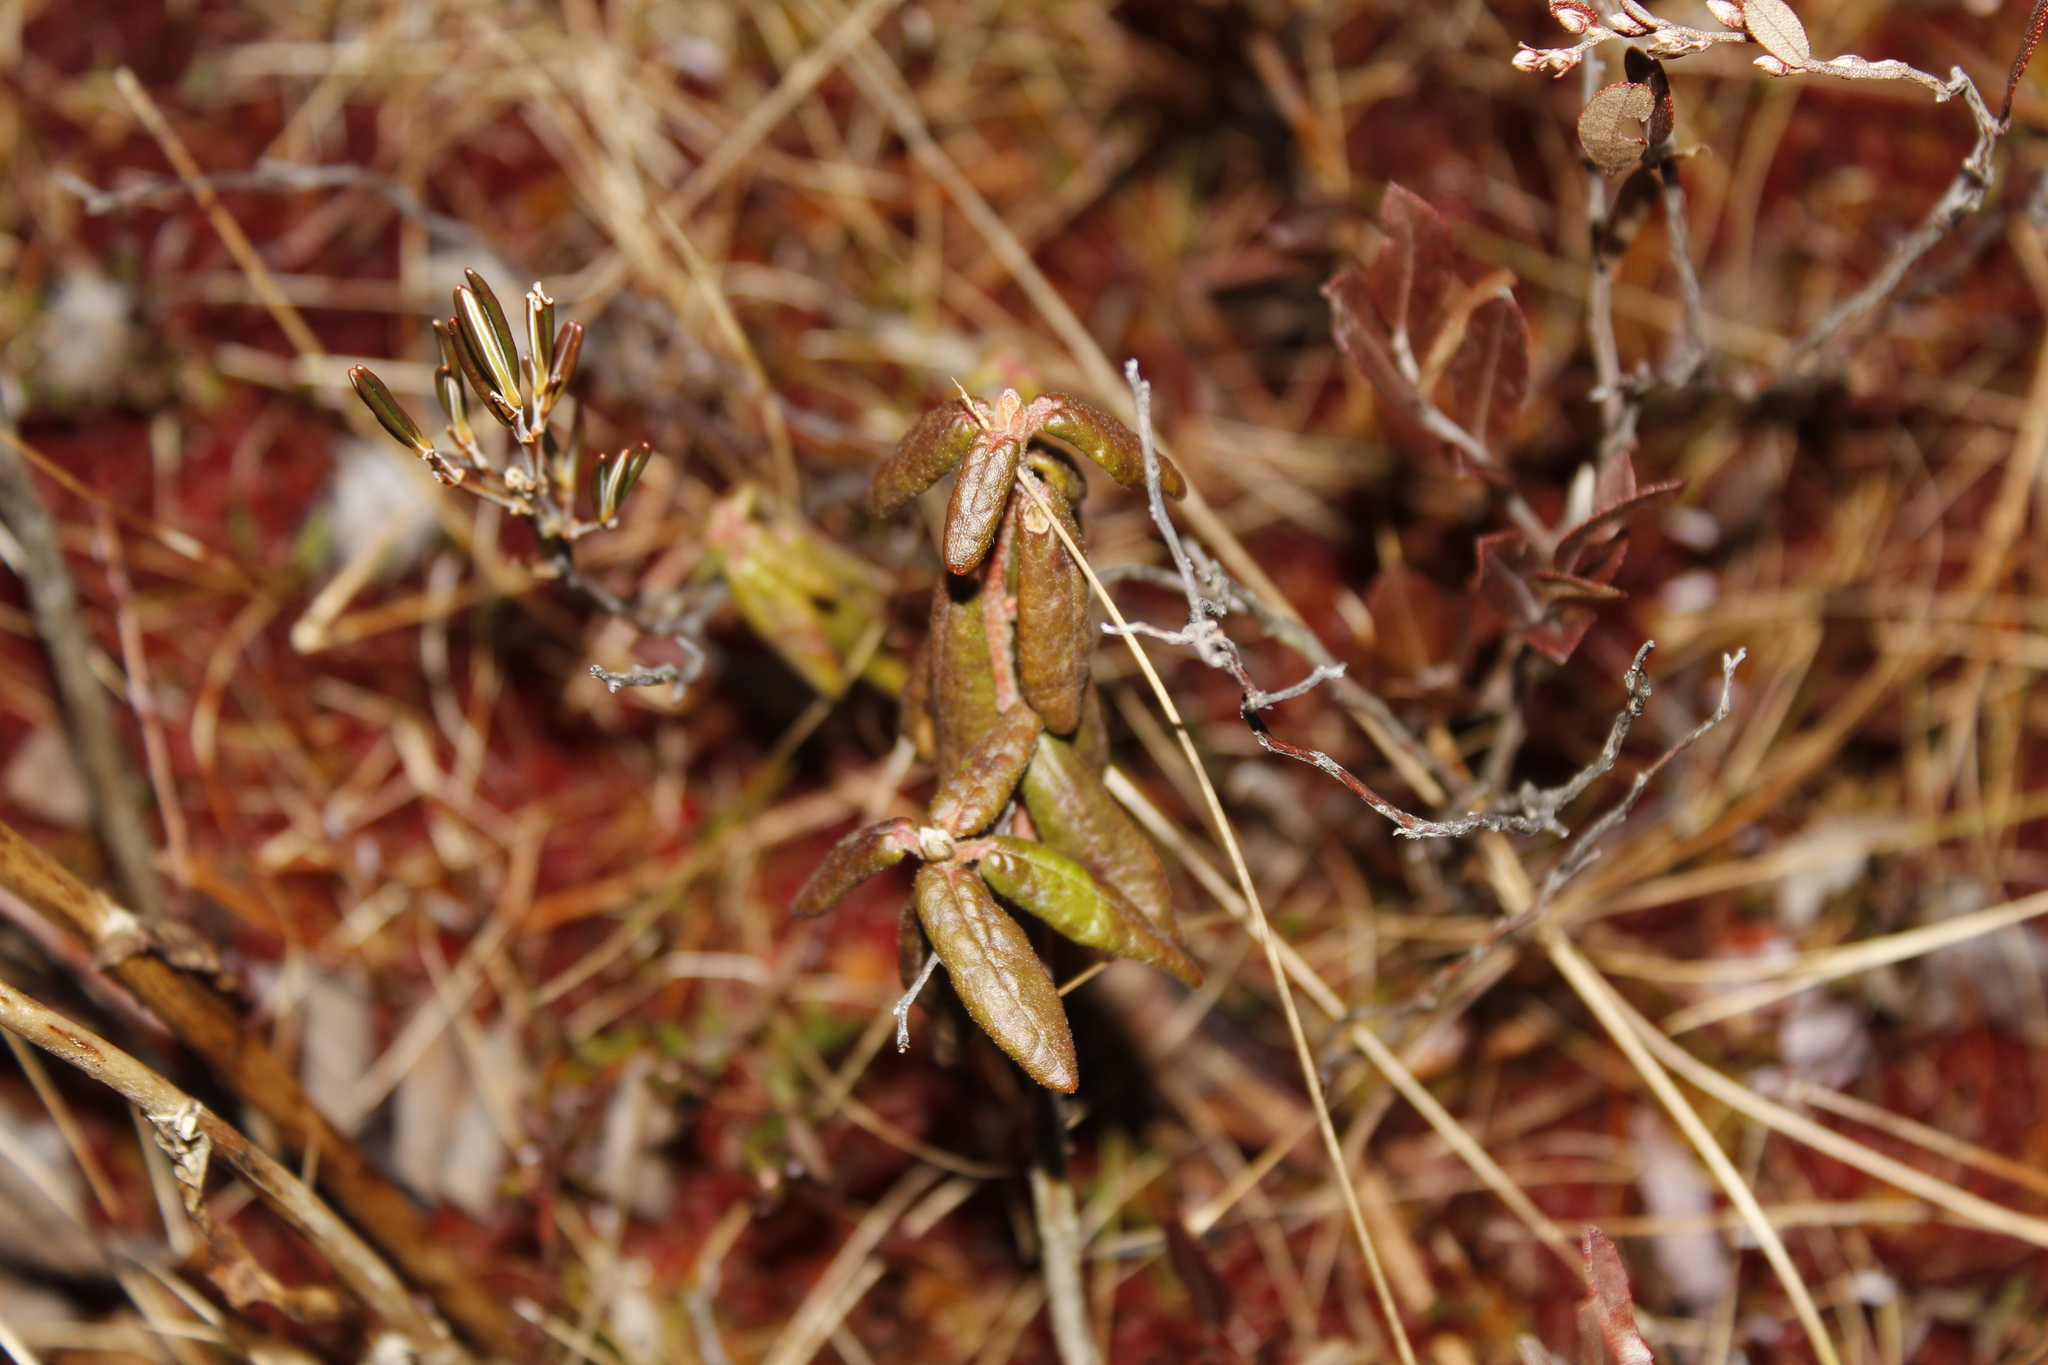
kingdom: Plantae
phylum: Tracheophyta
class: Magnoliopsida
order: Ericales
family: Ericaceae
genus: Rhododendron
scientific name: Rhododendron groenlandicum
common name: Bog labrador tea
